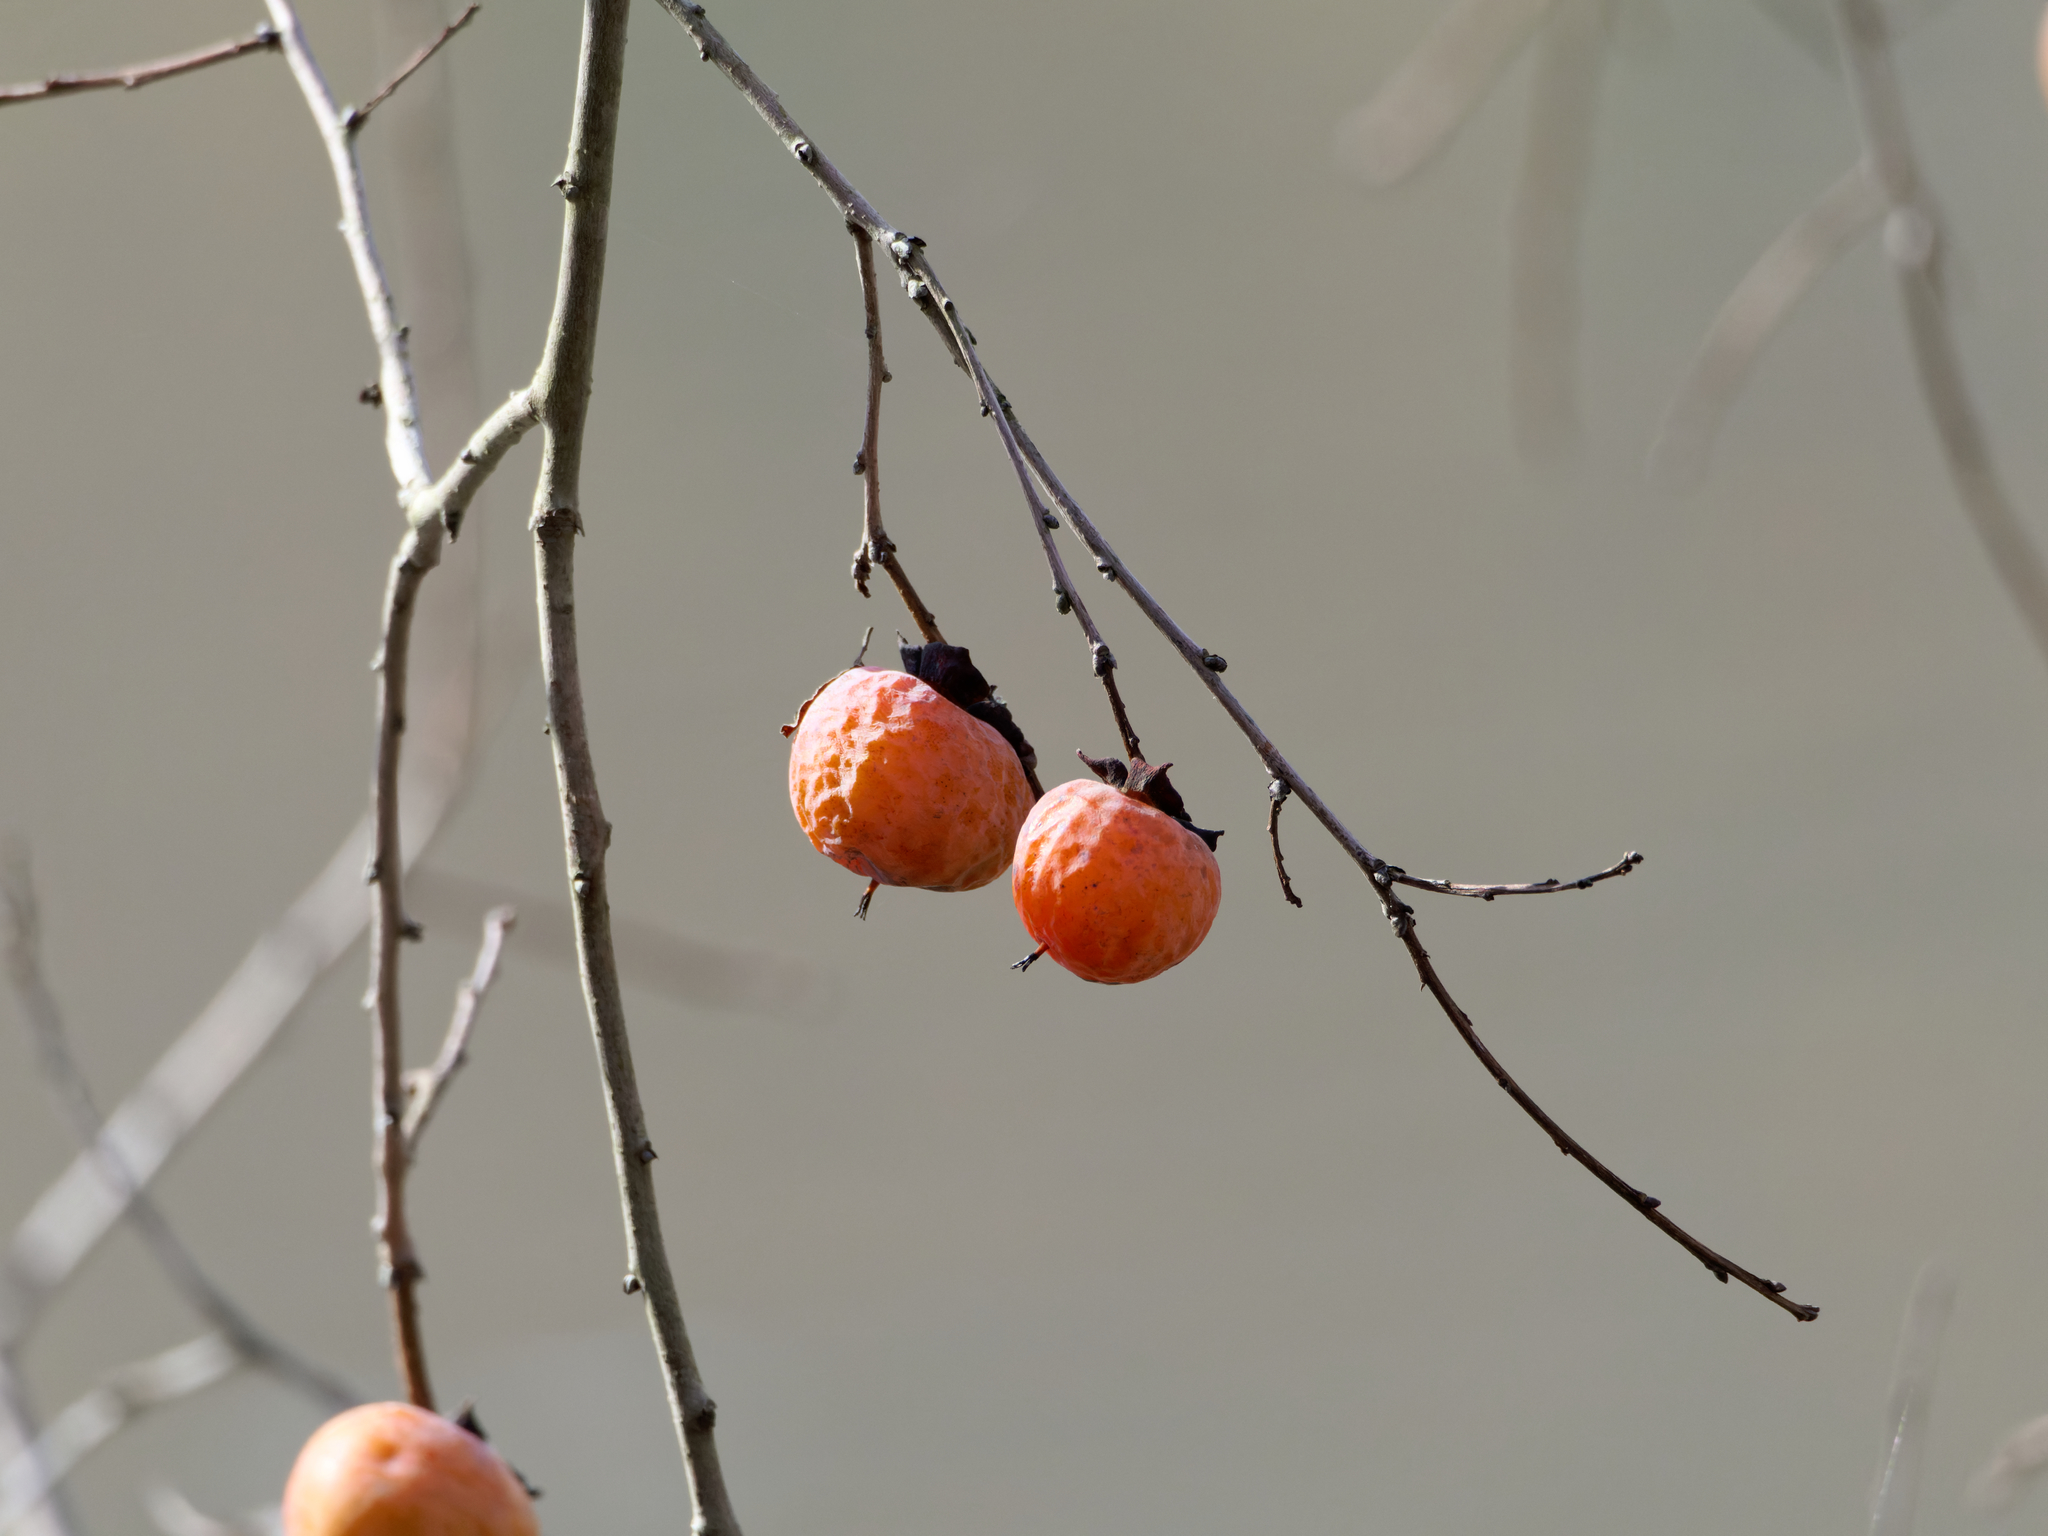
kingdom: Plantae
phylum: Tracheophyta
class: Magnoliopsida
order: Ericales
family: Ebenaceae
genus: Diospyros
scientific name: Diospyros virginiana
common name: Persimmon
